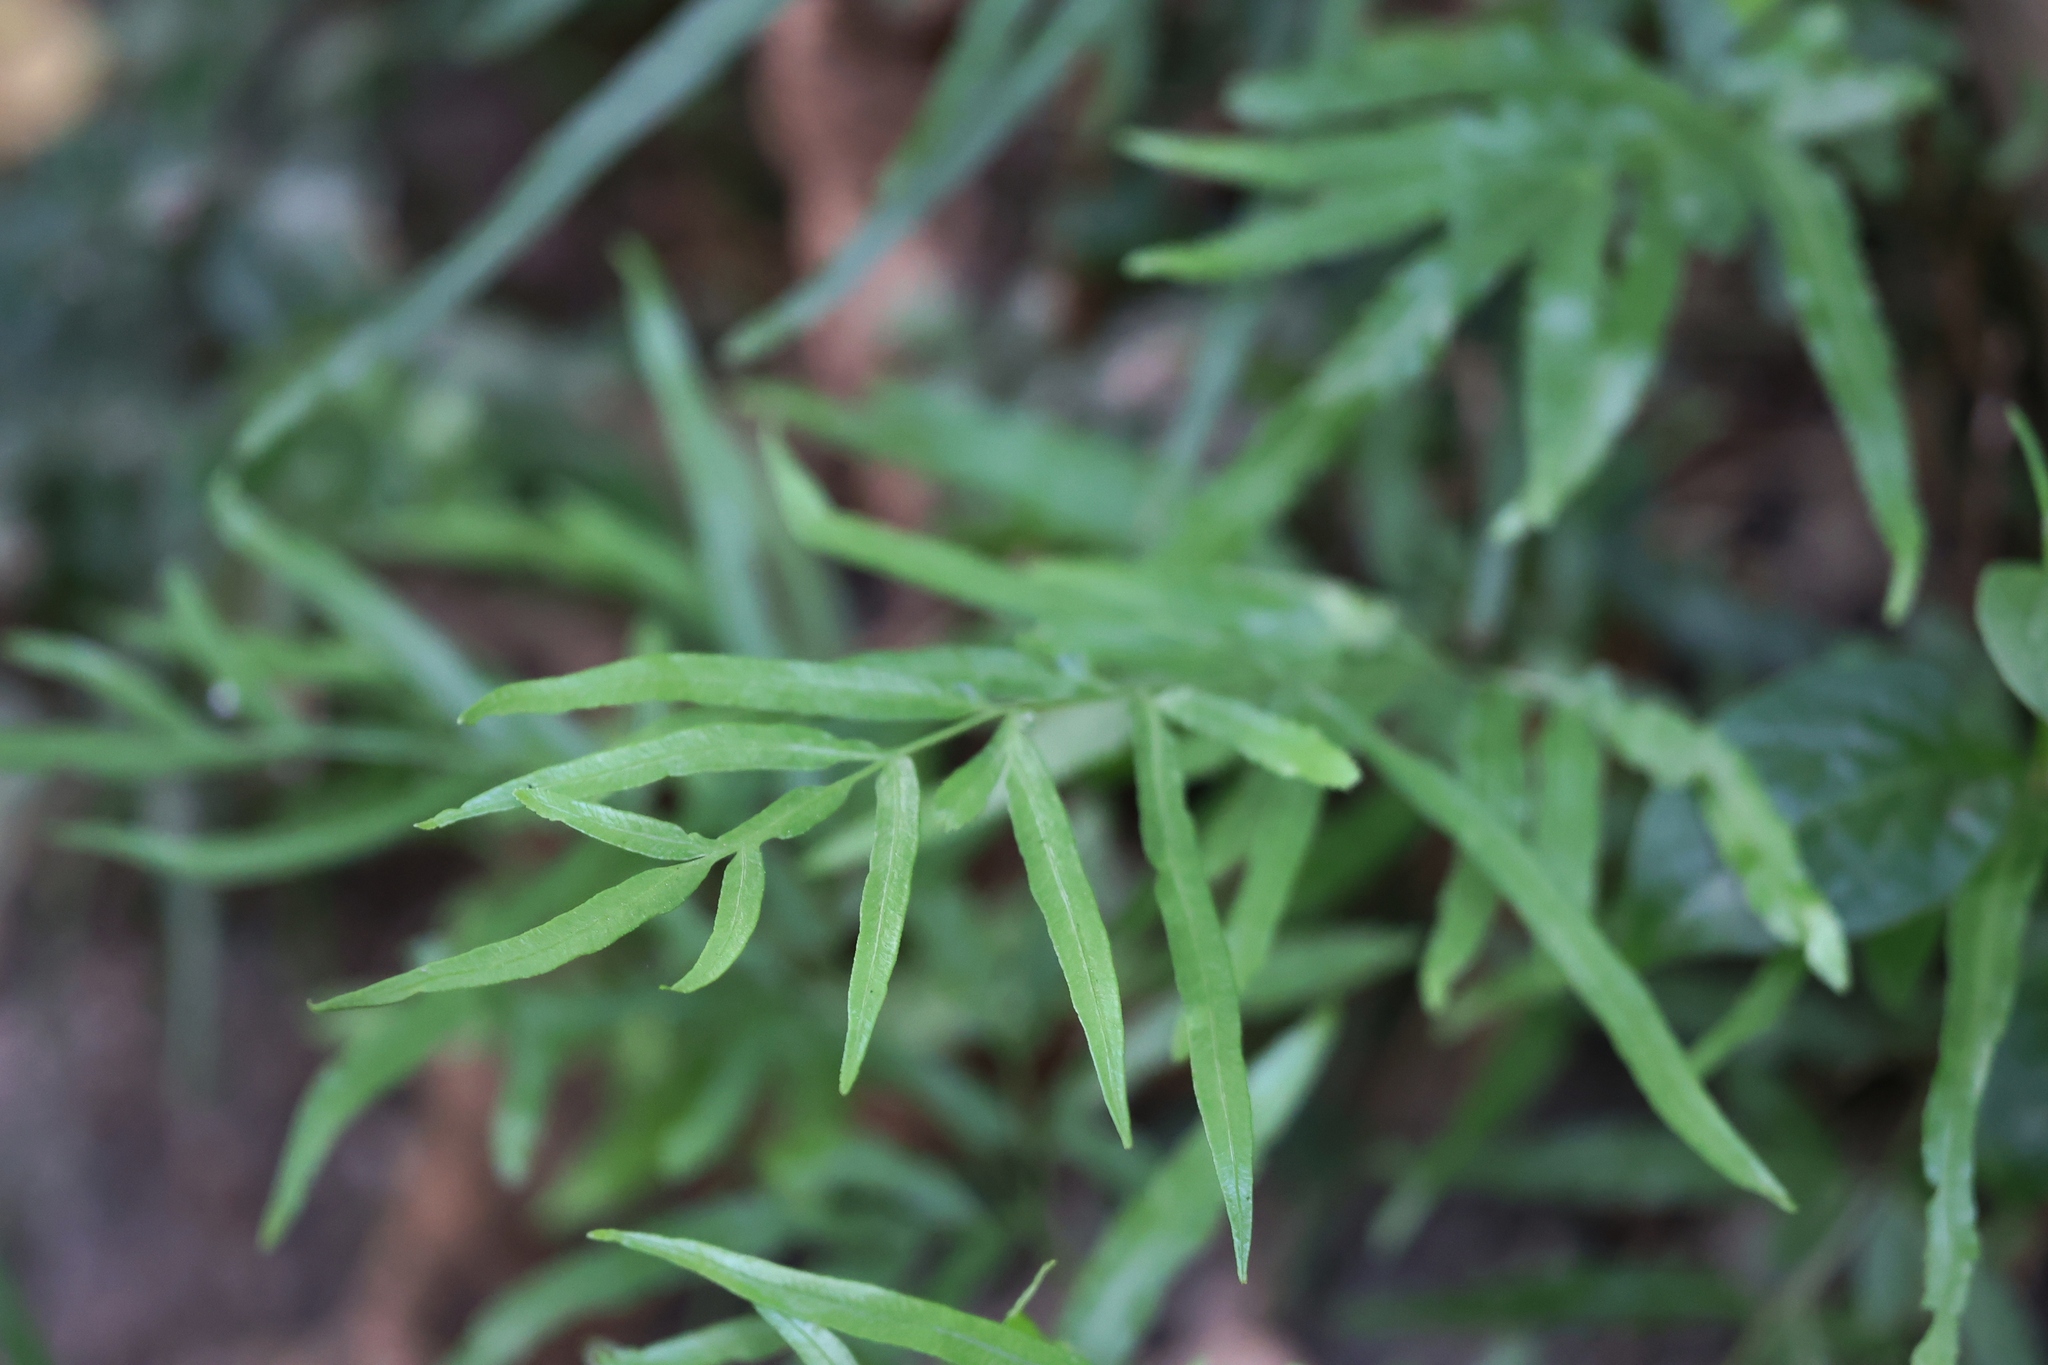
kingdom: Plantae
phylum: Tracheophyta
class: Polypodiopsida
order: Polypodiales
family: Pteridaceae
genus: Pteris
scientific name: Pteris ensiformis
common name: Sword brake
